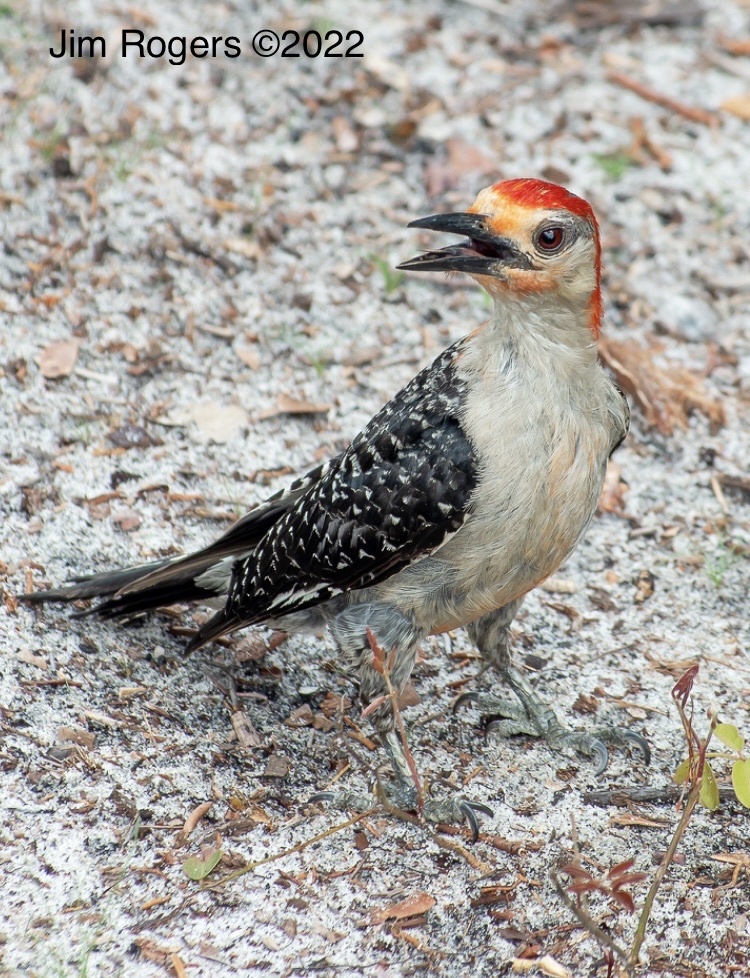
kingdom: Animalia
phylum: Chordata
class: Aves
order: Piciformes
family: Picidae
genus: Melanerpes
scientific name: Melanerpes carolinus
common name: Red-bellied woodpecker
